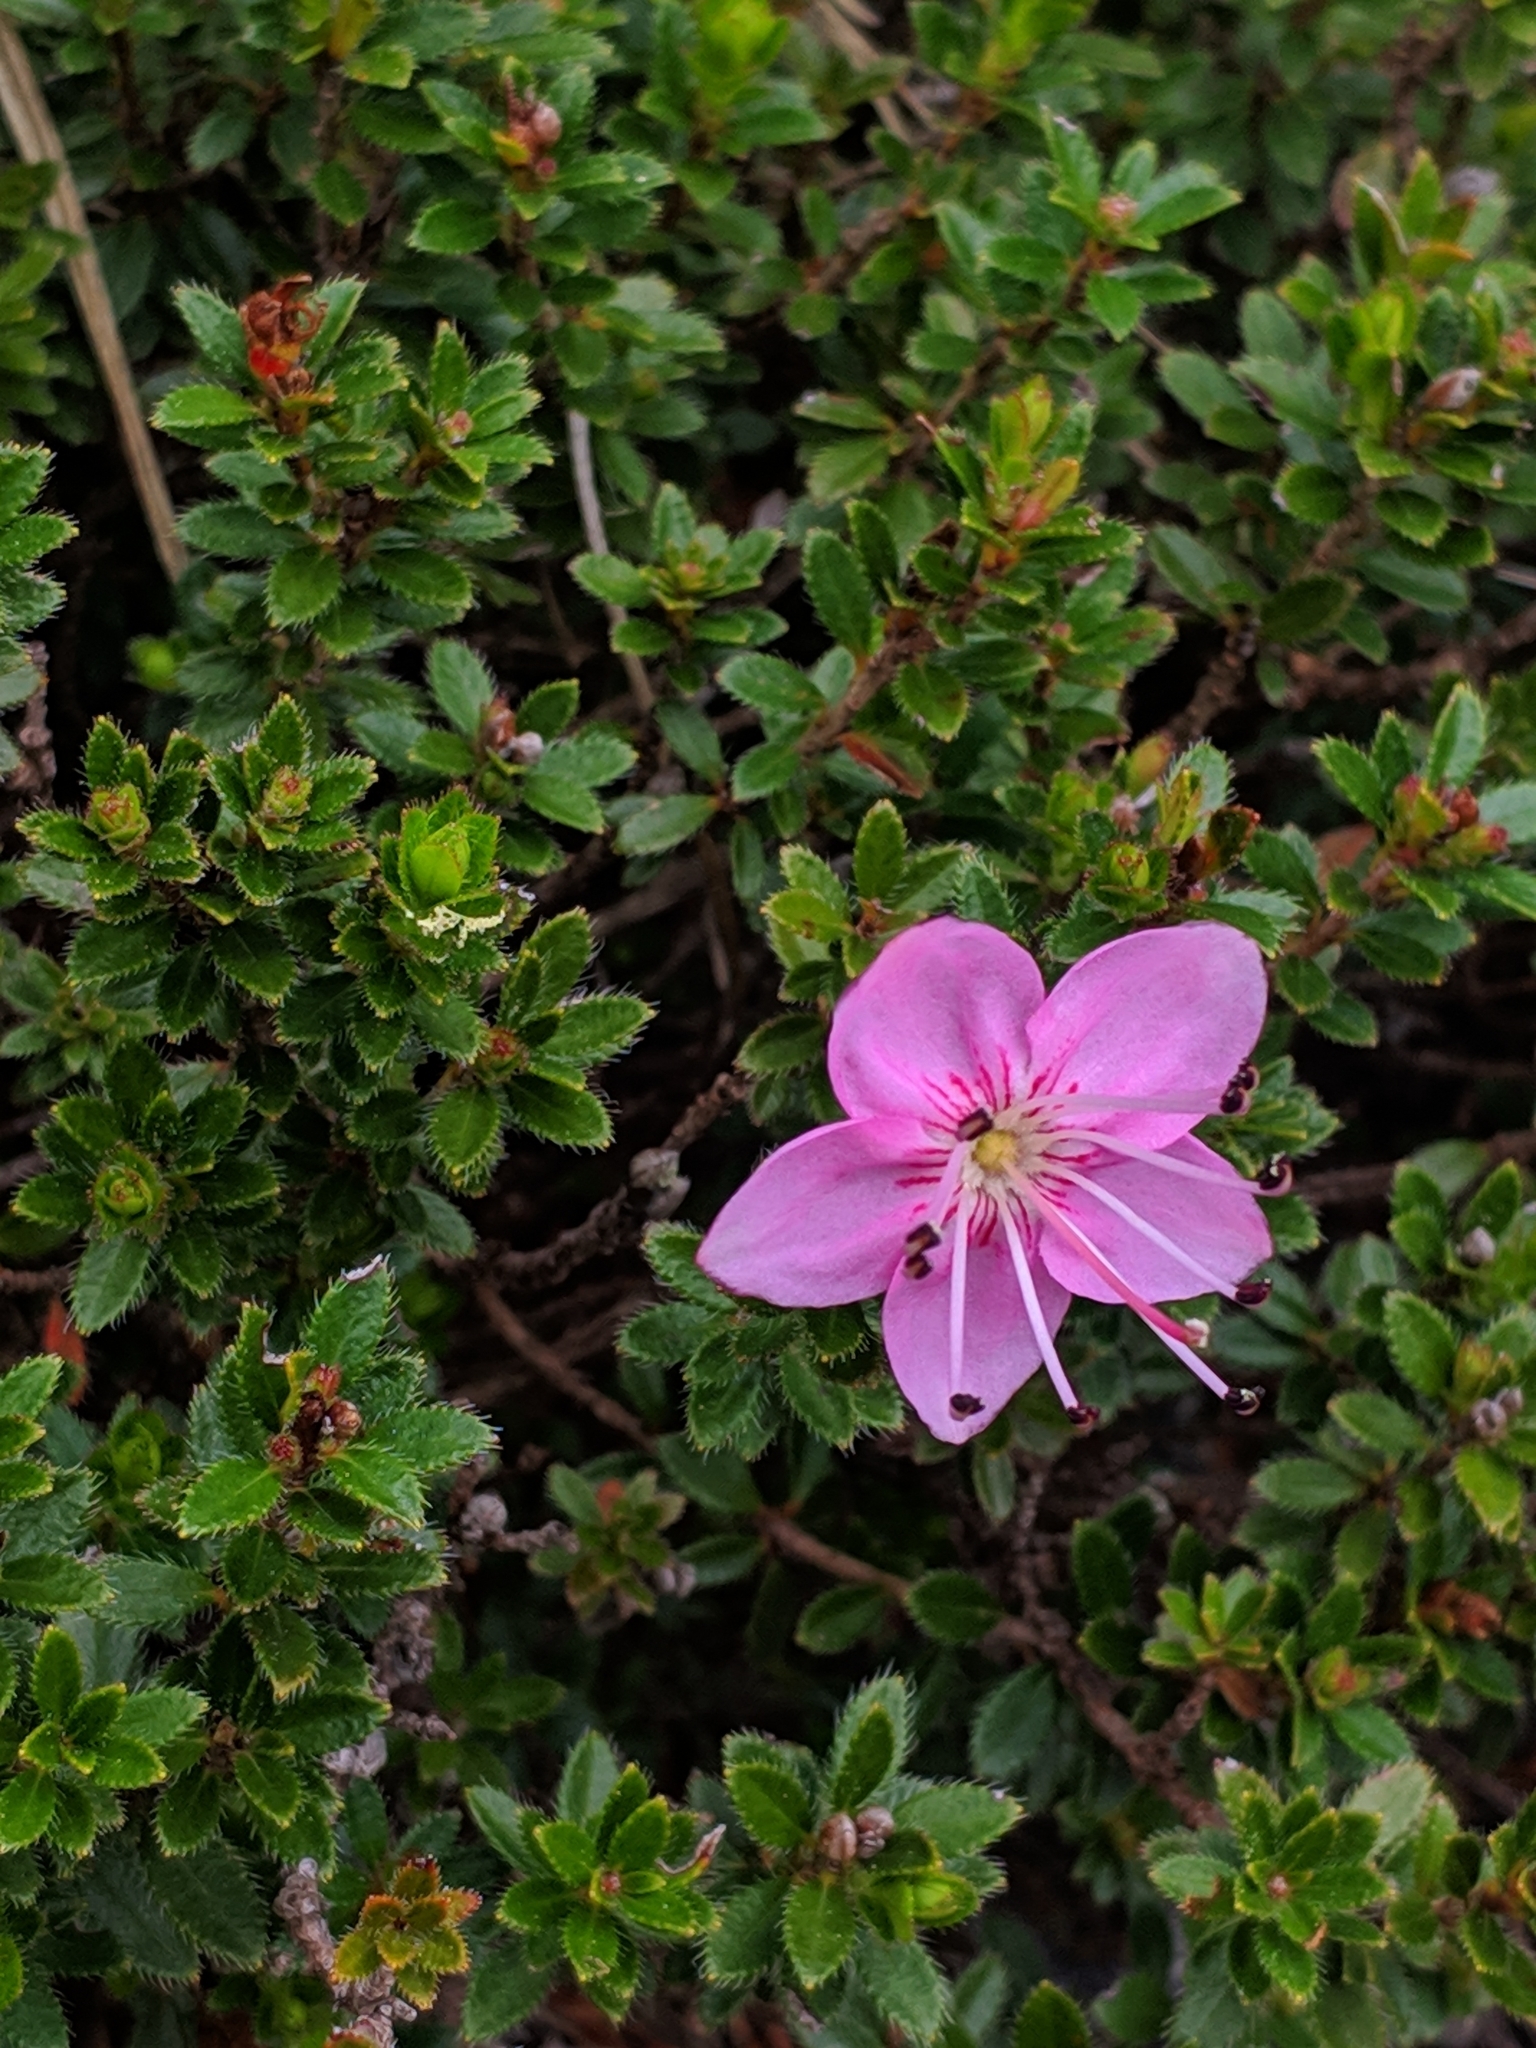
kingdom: Plantae
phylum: Tracheophyta
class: Magnoliopsida
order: Ericales
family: Ericaceae
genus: Rhodothamnus
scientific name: Rhodothamnus chamaecistus
